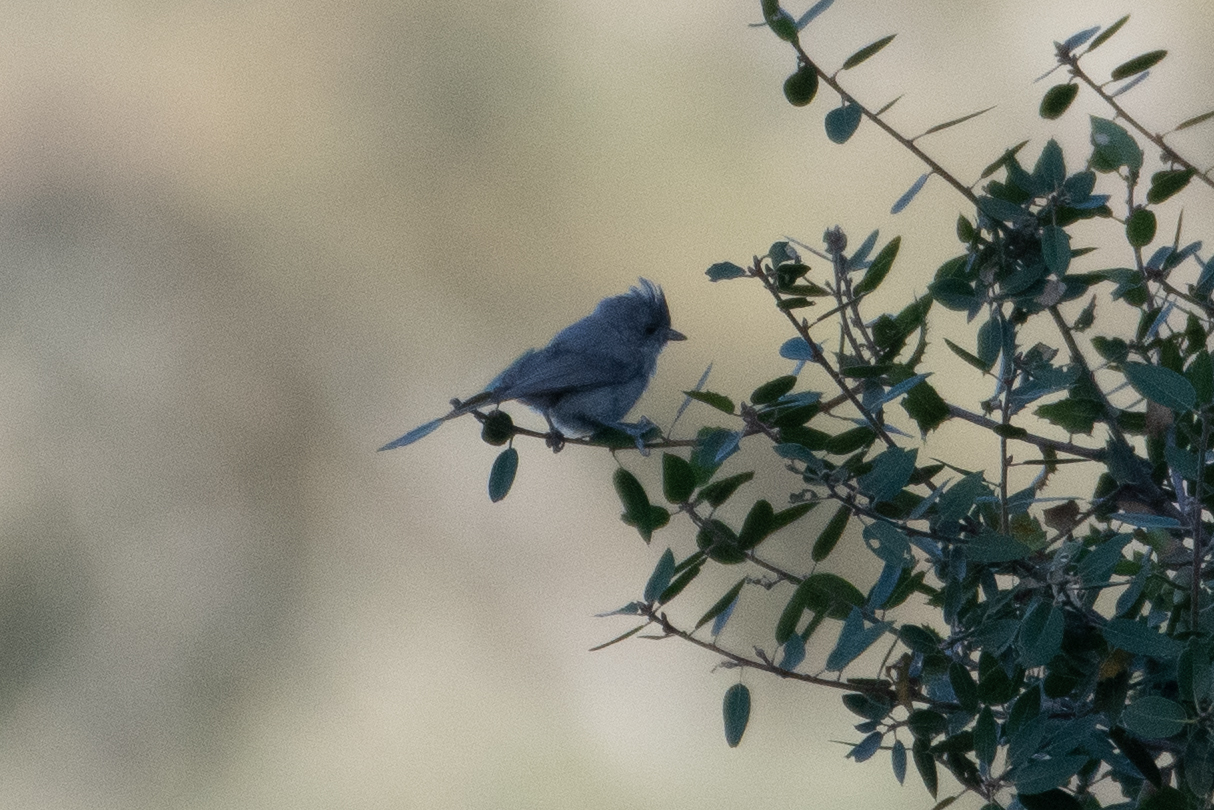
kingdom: Animalia
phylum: Chordata
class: Aves
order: Passeriformes
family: Paridae
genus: Baeolophus
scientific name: Baeolophus inornatus
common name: Oak titmouse
